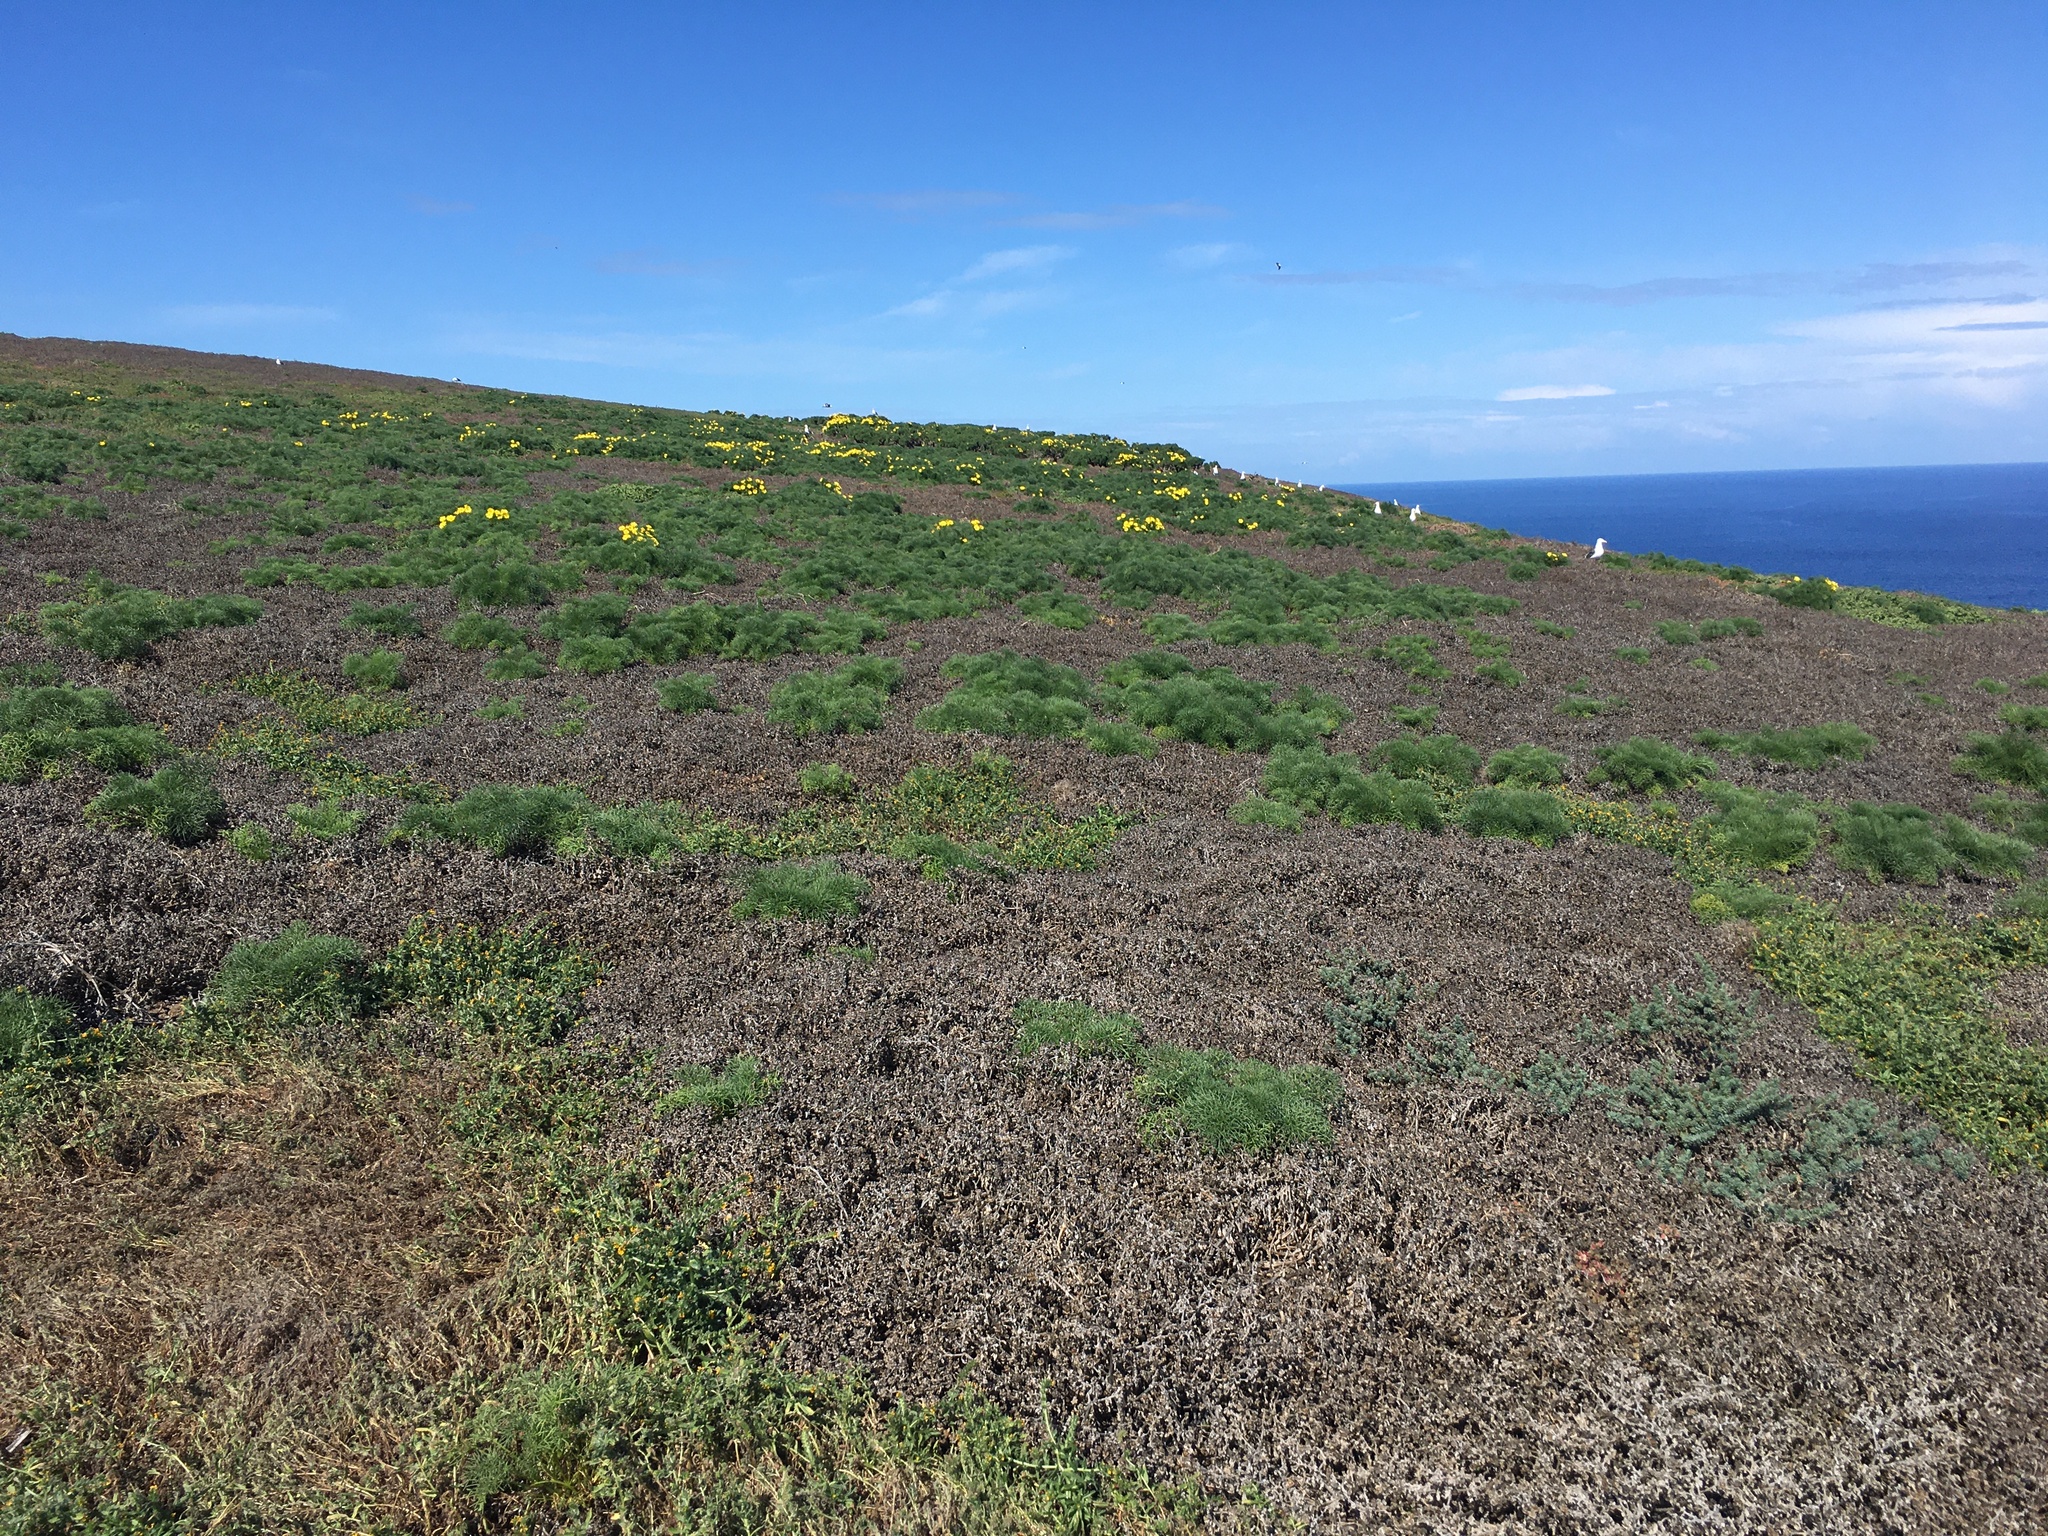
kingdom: Plantae
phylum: Tracheophyta
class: Magnoliopsida
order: Asterales
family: Asteraceae
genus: Coreopsis
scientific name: Coreopsis gigantea
